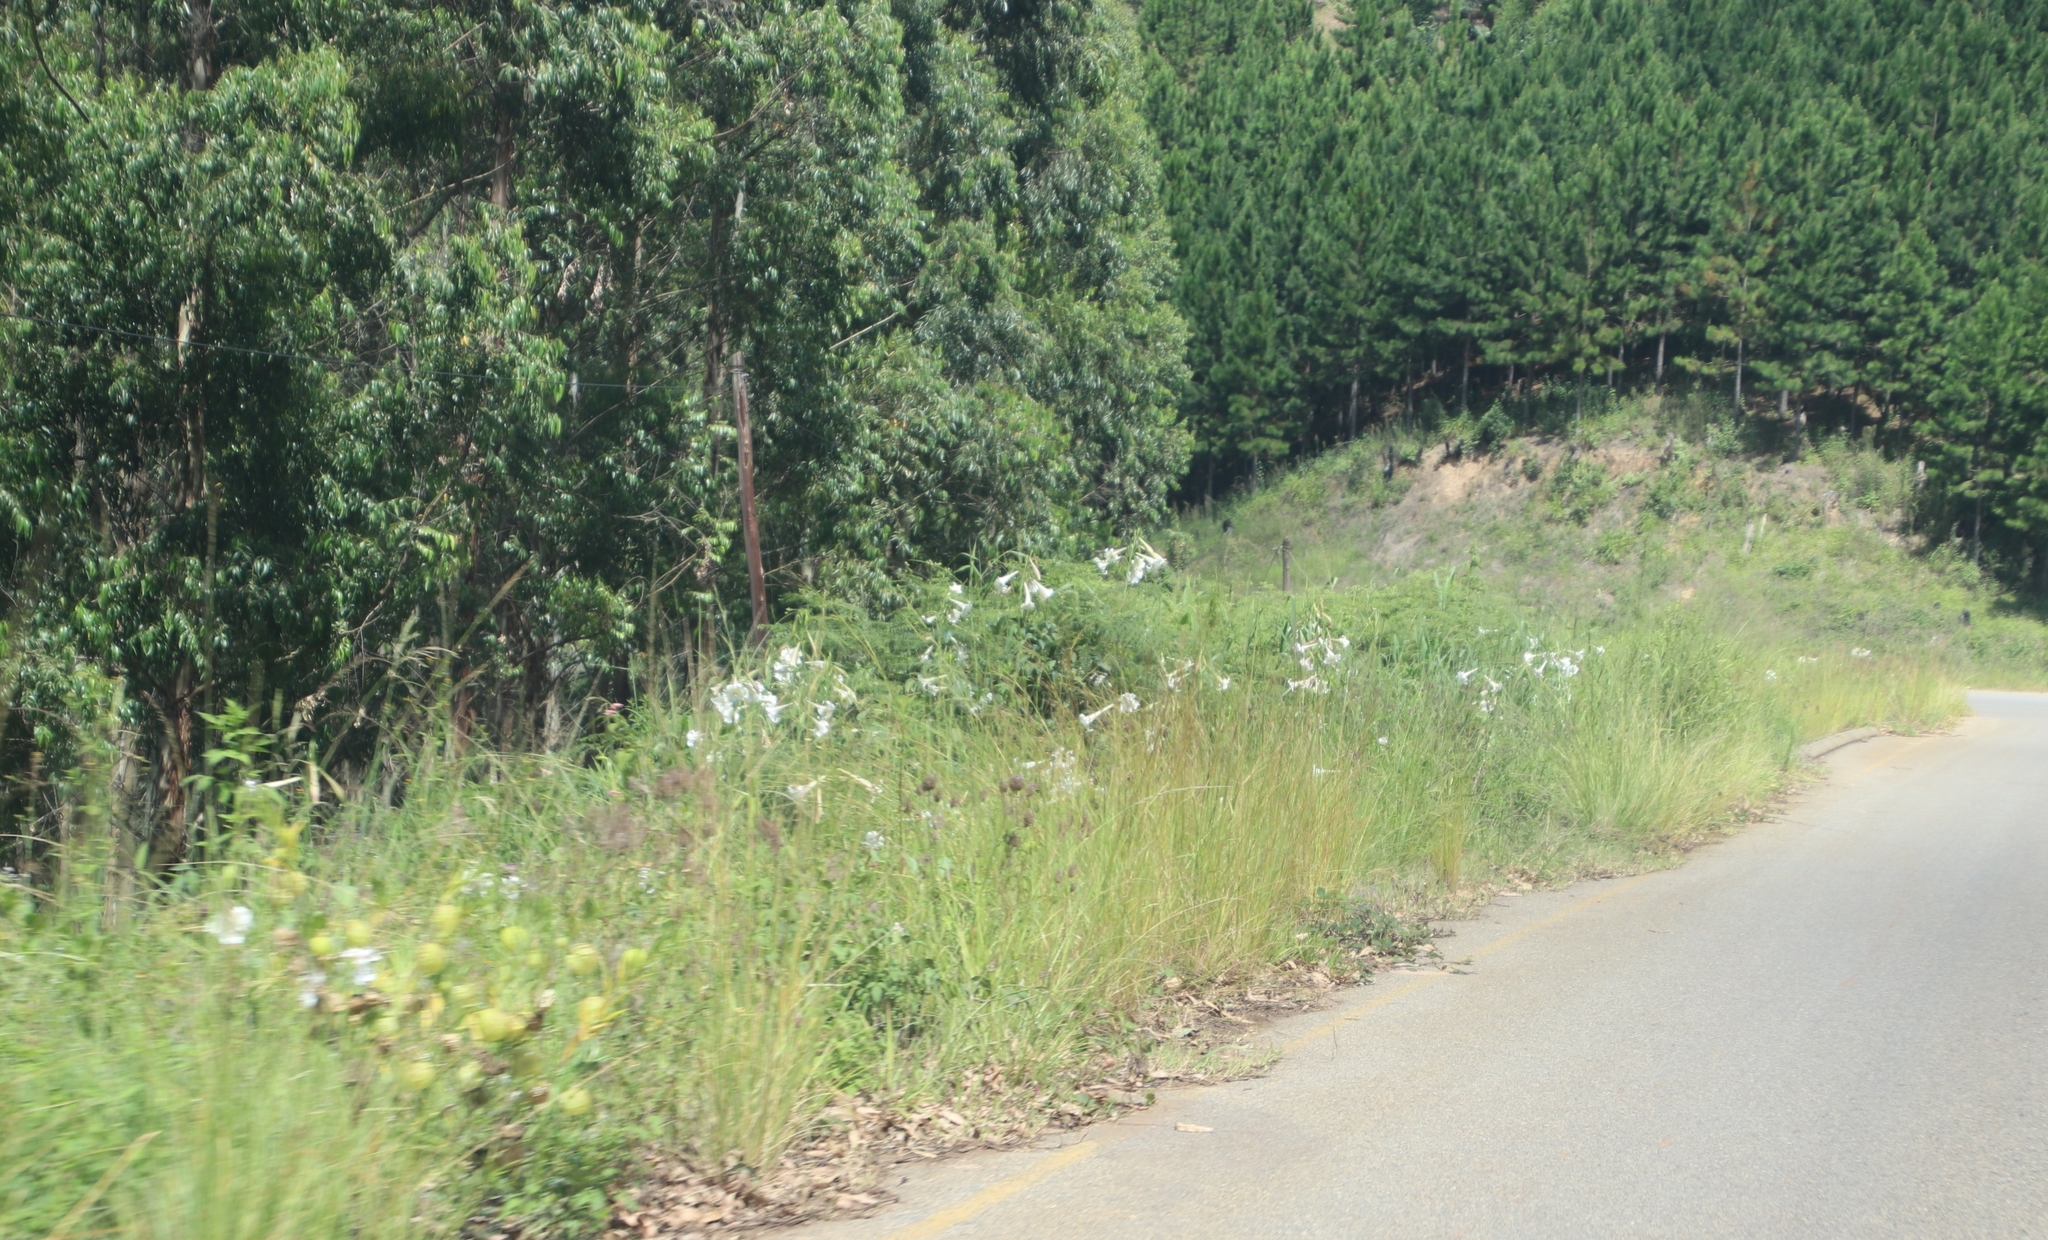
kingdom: Plantae
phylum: Tracheophyta
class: Liliopsida
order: Liliales
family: Liliaceae
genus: Lilium
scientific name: Lilium formosanum
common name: Formosa lily
